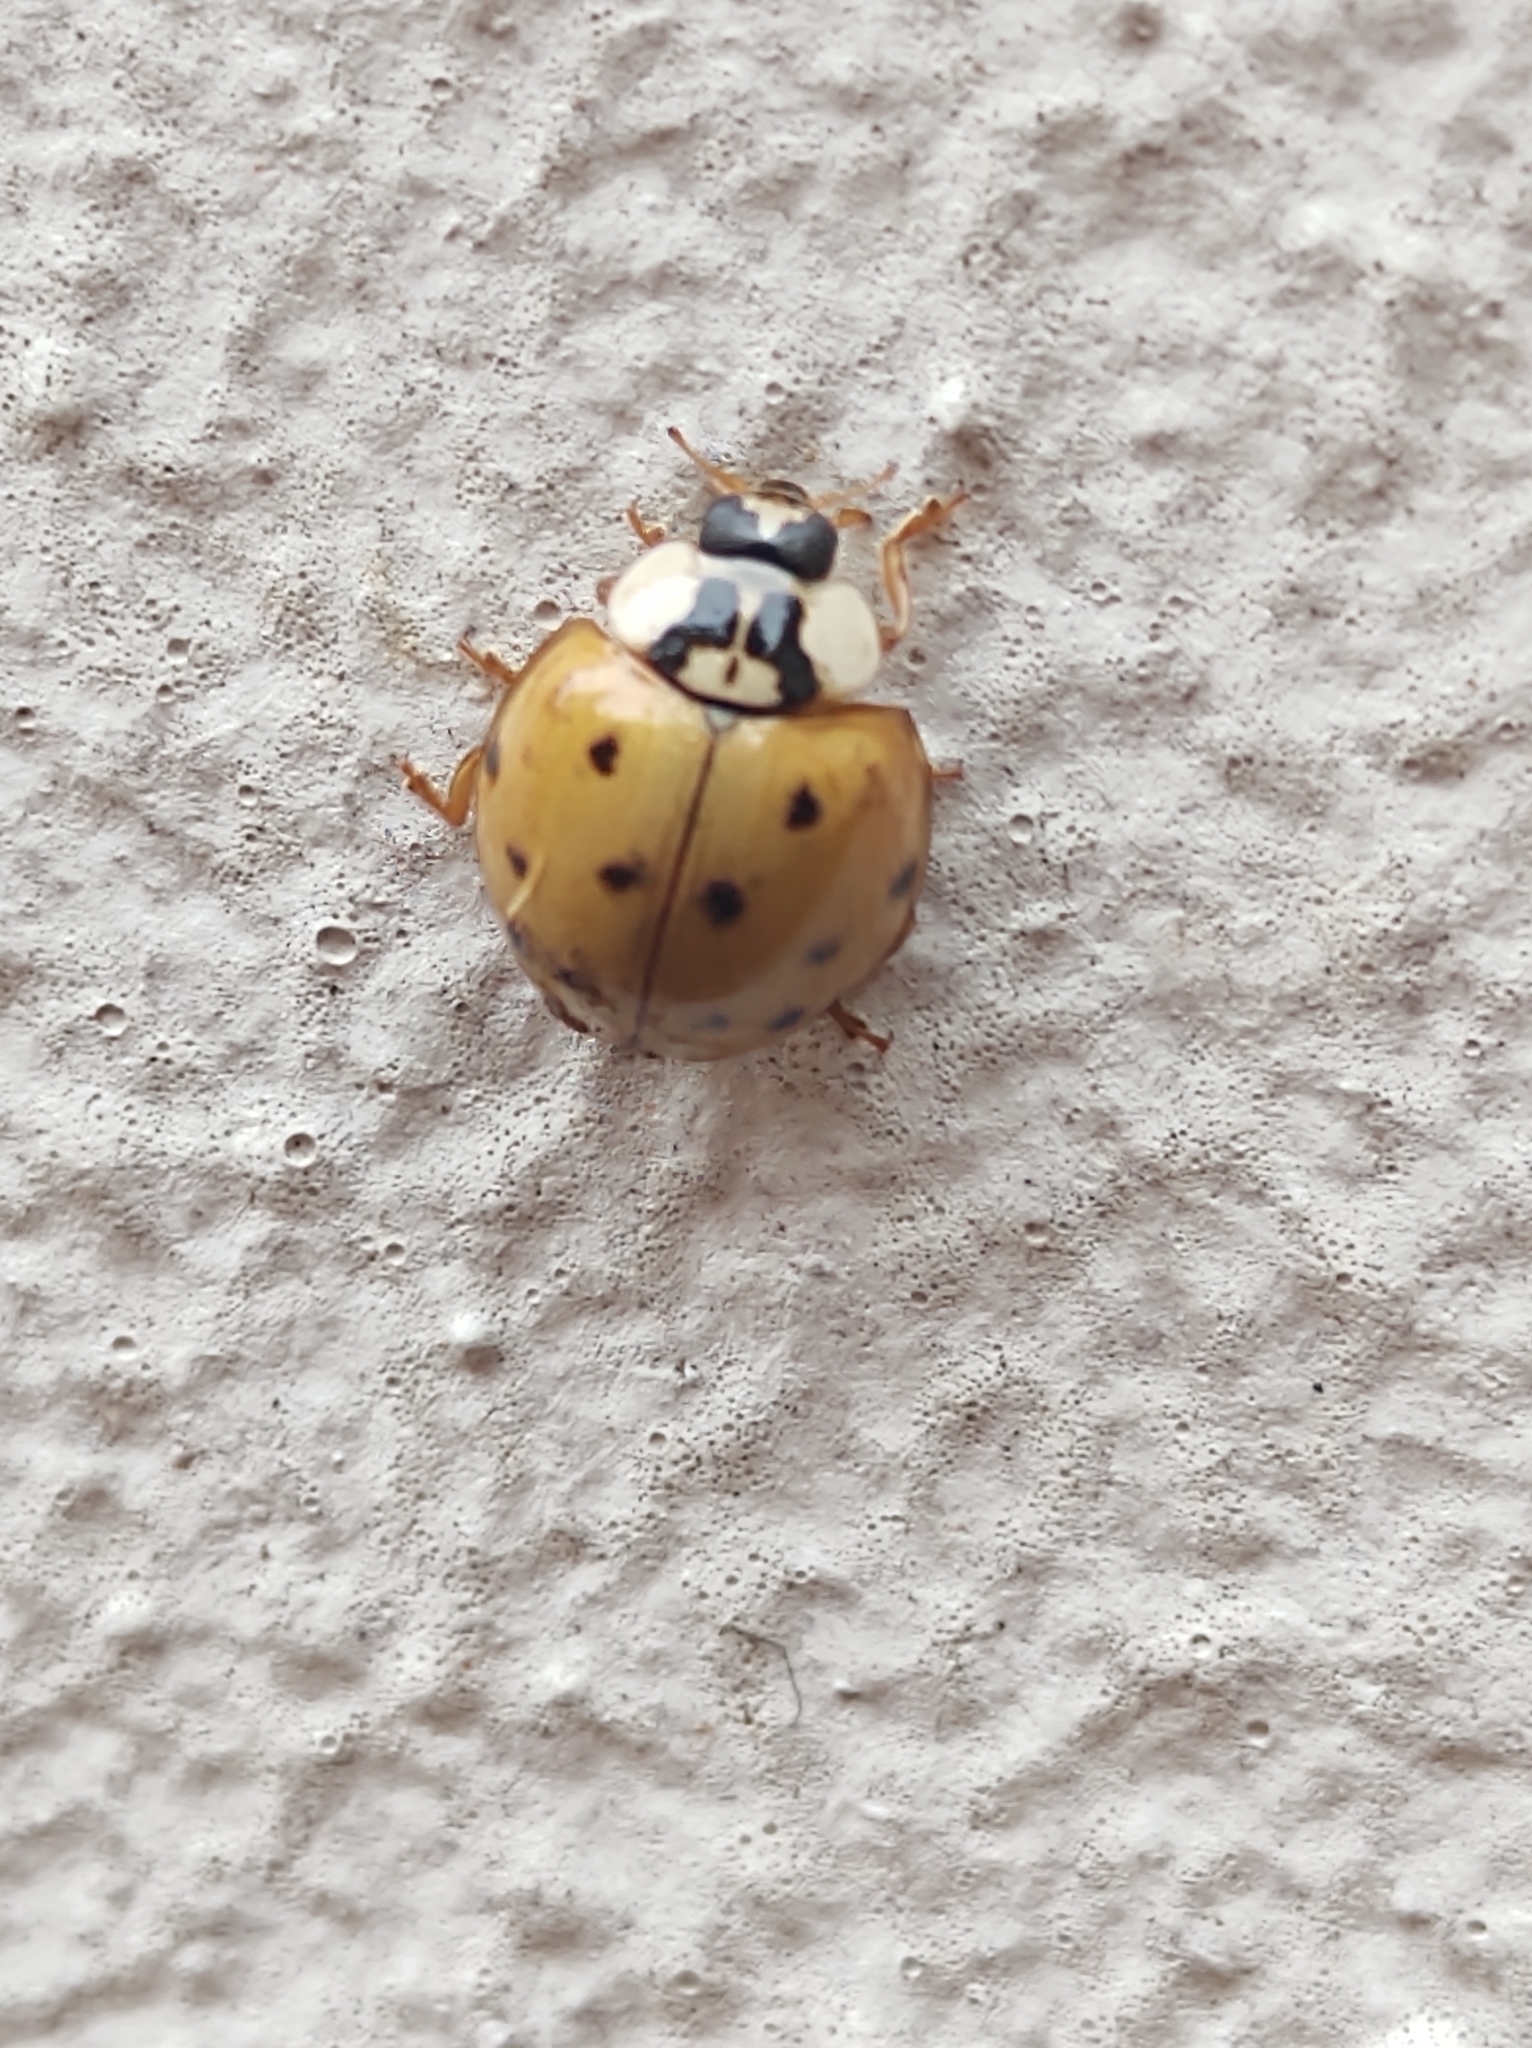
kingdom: Animalia
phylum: Arthropoda
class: Insecta
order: Coleoptera
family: Coccinellidae
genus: Harmonia
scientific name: Harmonia axyridis
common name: Harlequin ladybird
